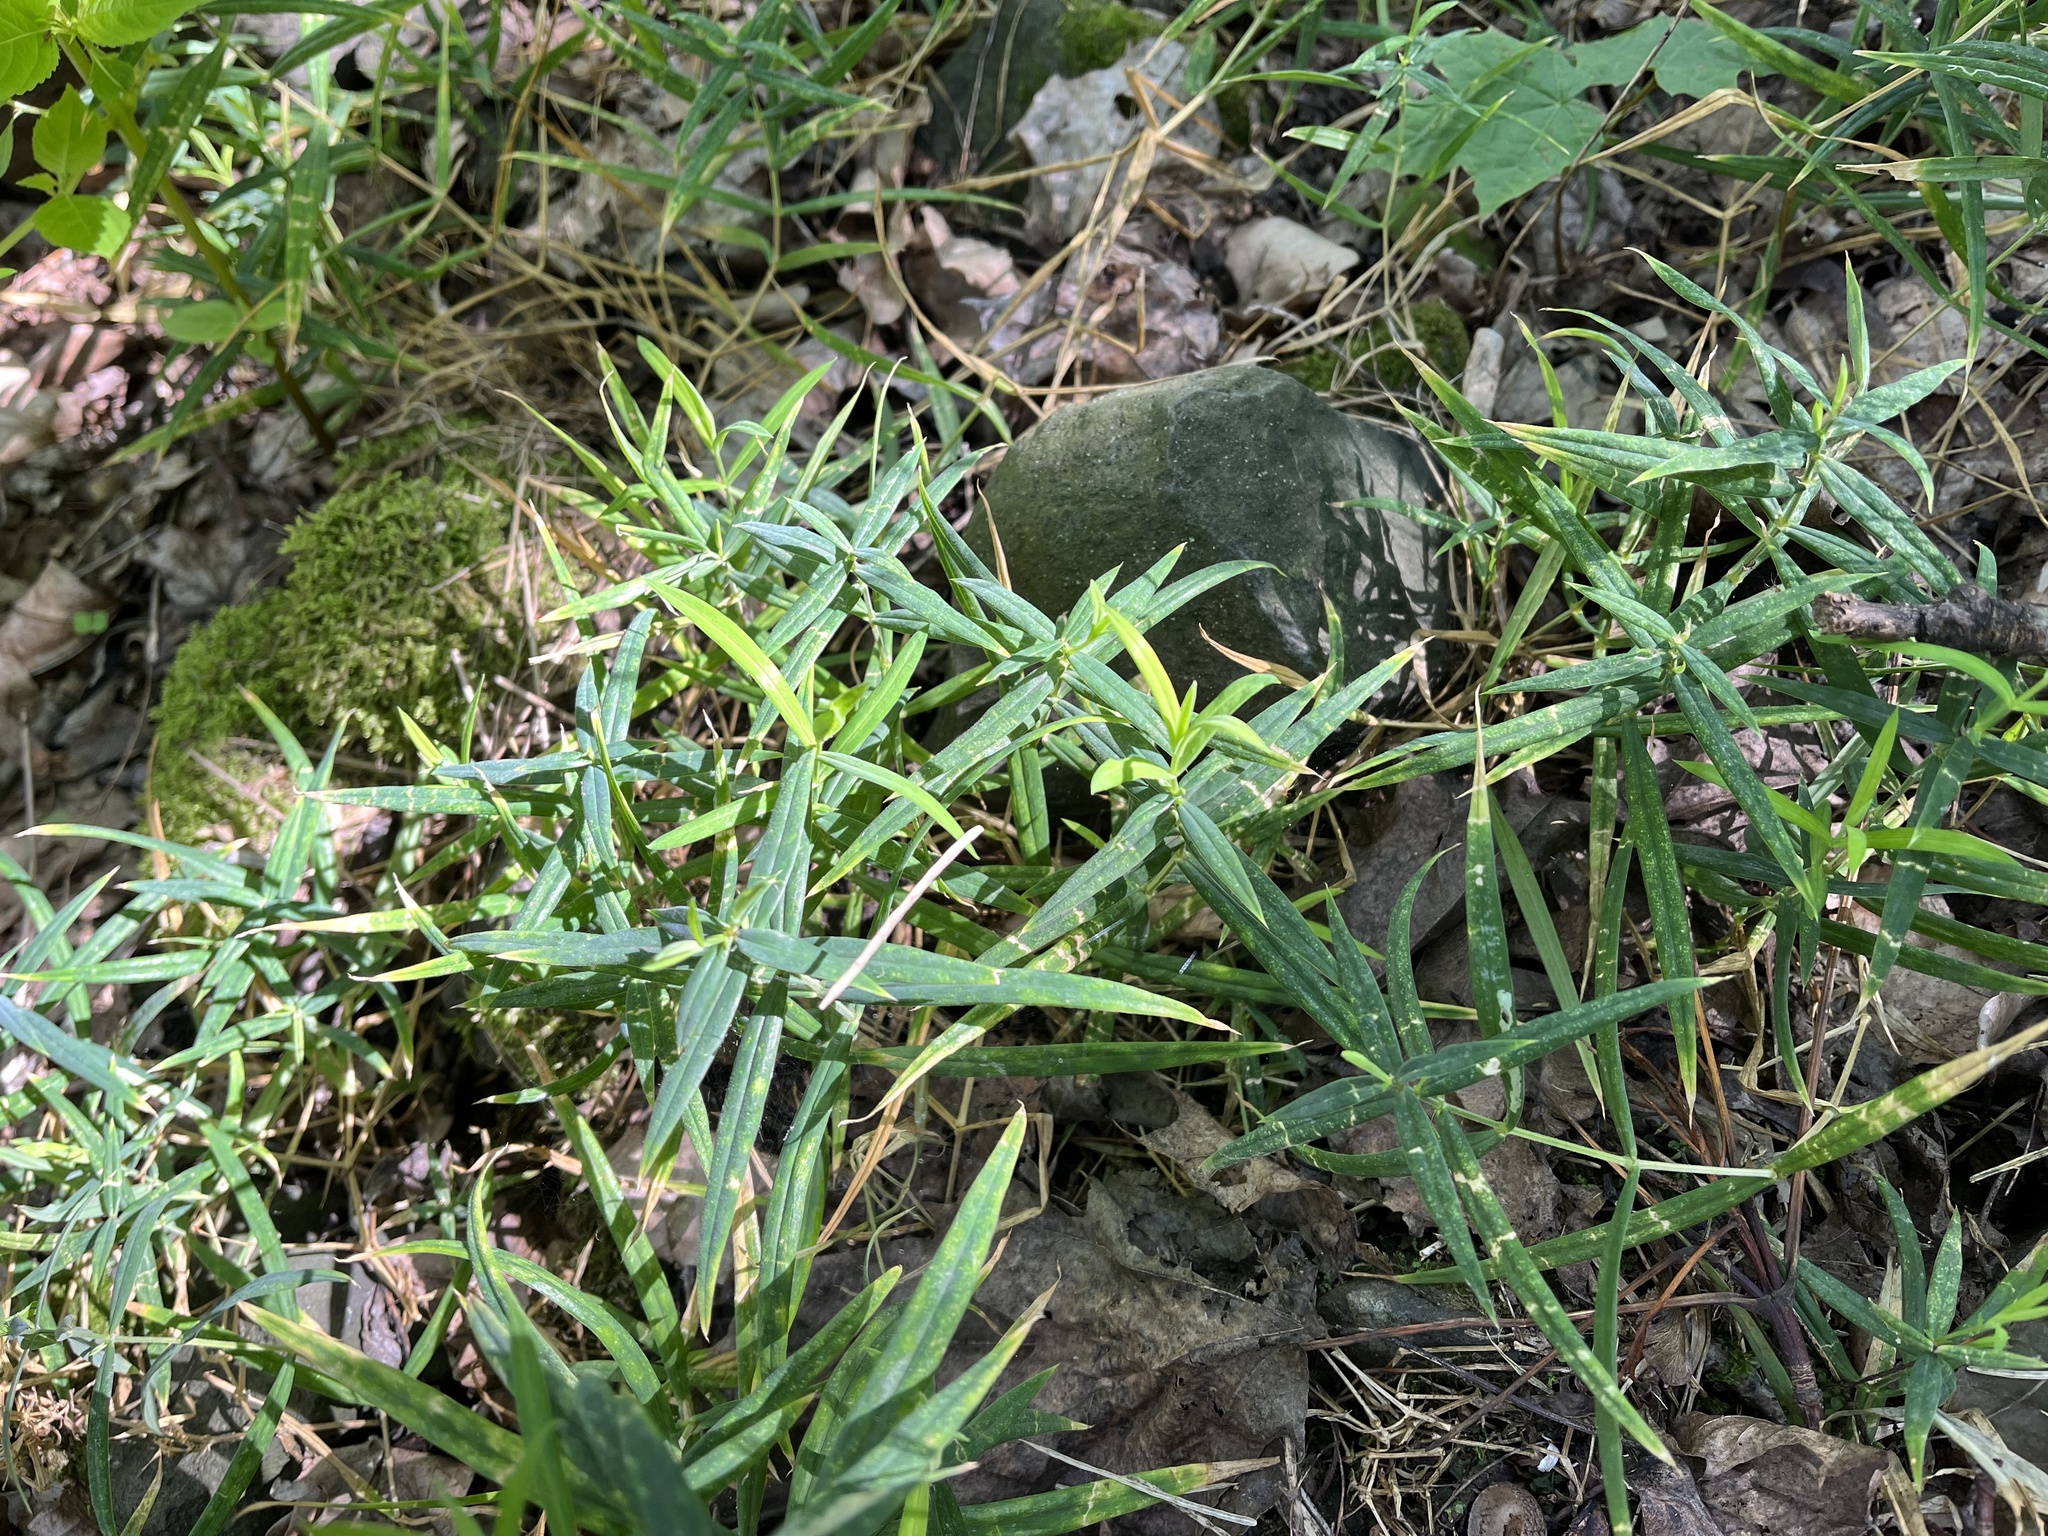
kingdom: Plantae
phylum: Tracheophyta
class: Magnoliopsida
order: Caryophyllales
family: Caryophyllaceae
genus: Rabelera
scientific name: Rabelera holostea
